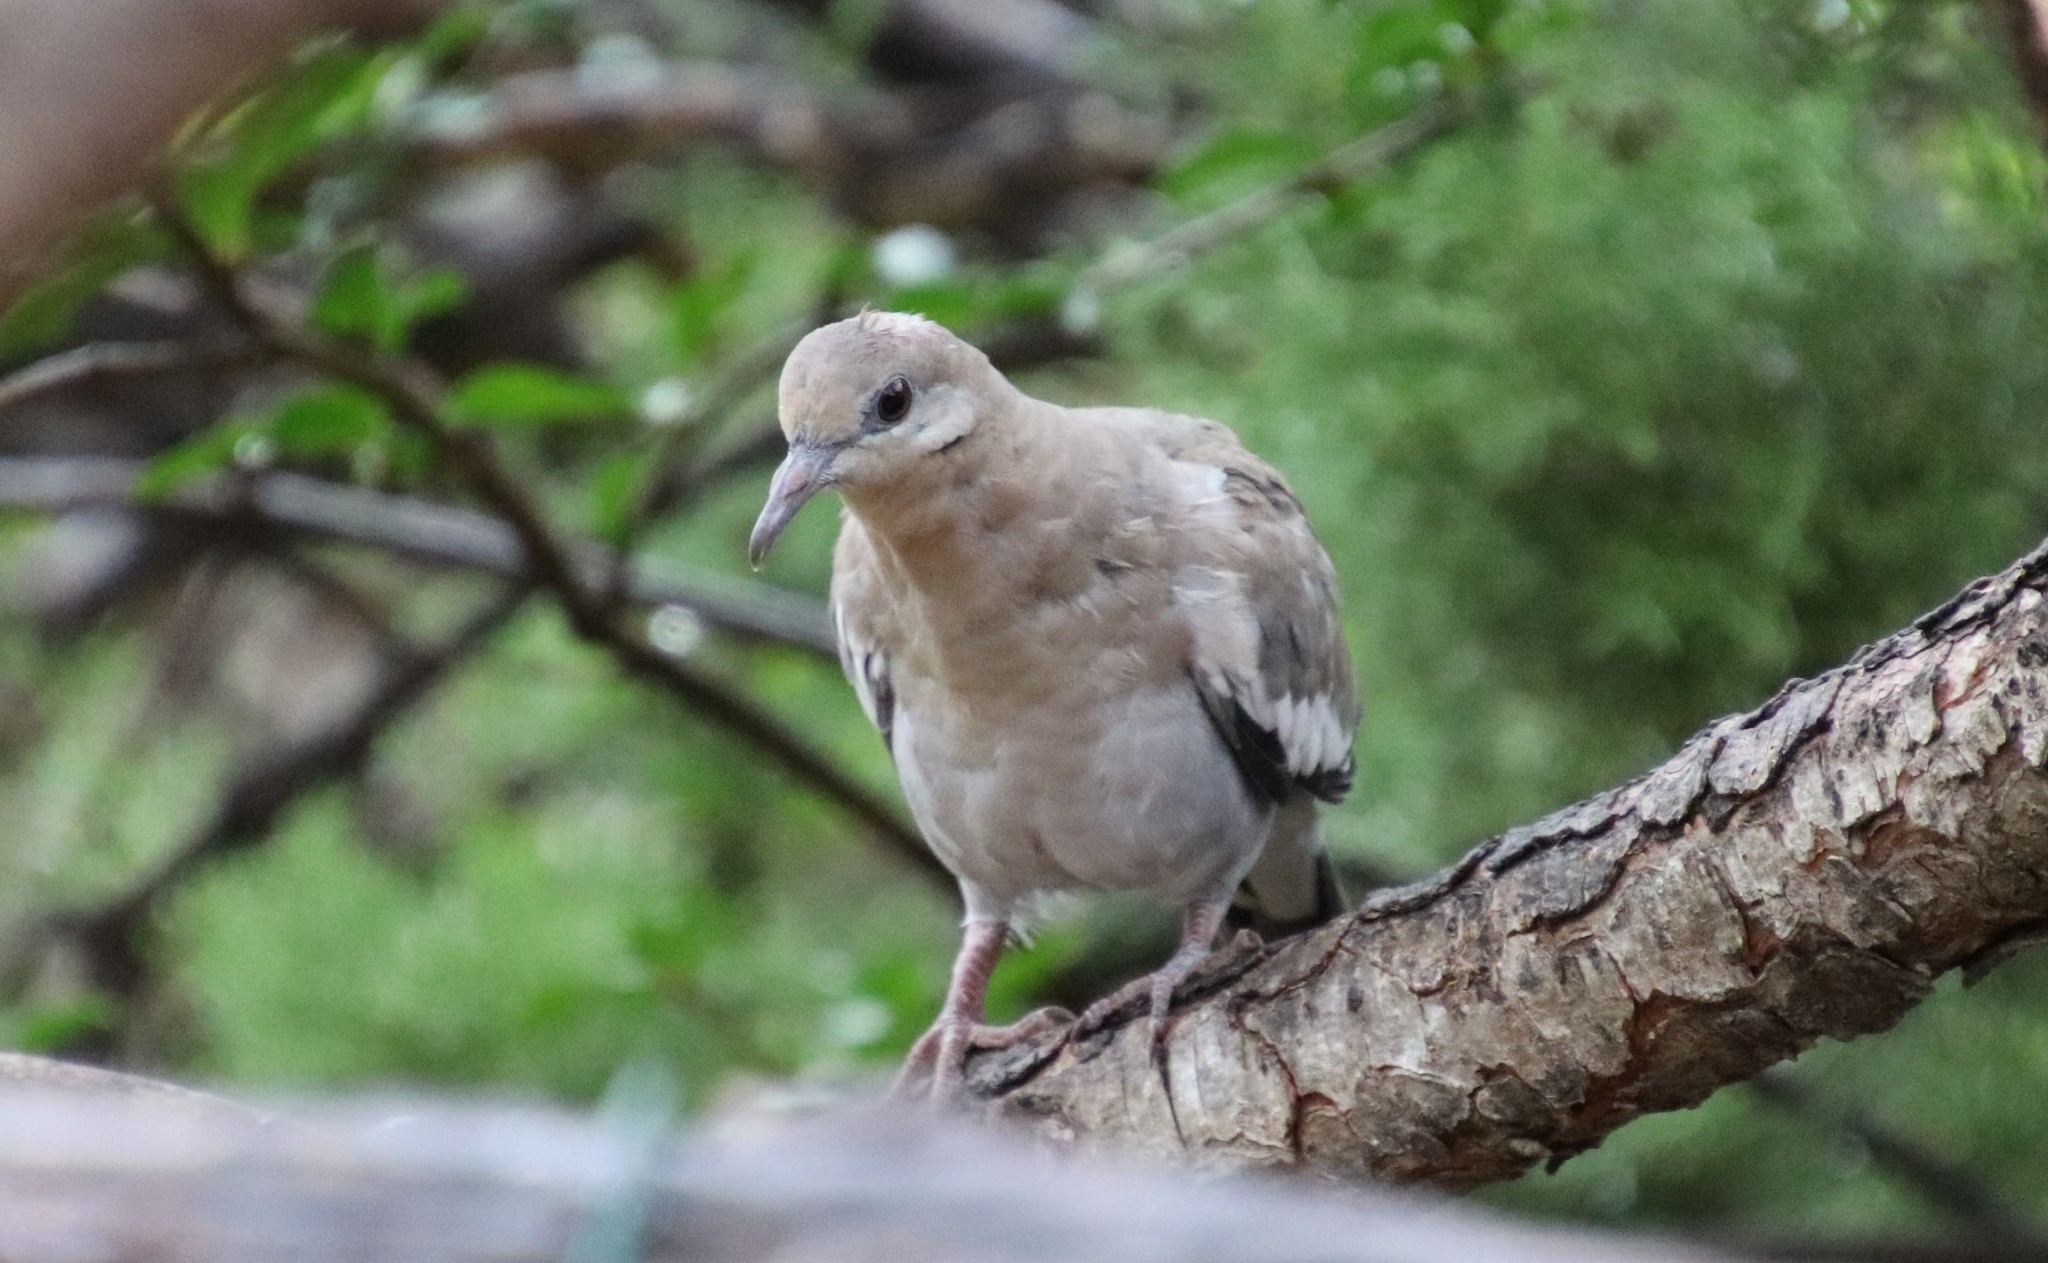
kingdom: Animalia
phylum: Chordata
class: Aves
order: Columbiformes
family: Columbidae
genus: Zenaida
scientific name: Zenaida asiatica
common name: White-winged dove
